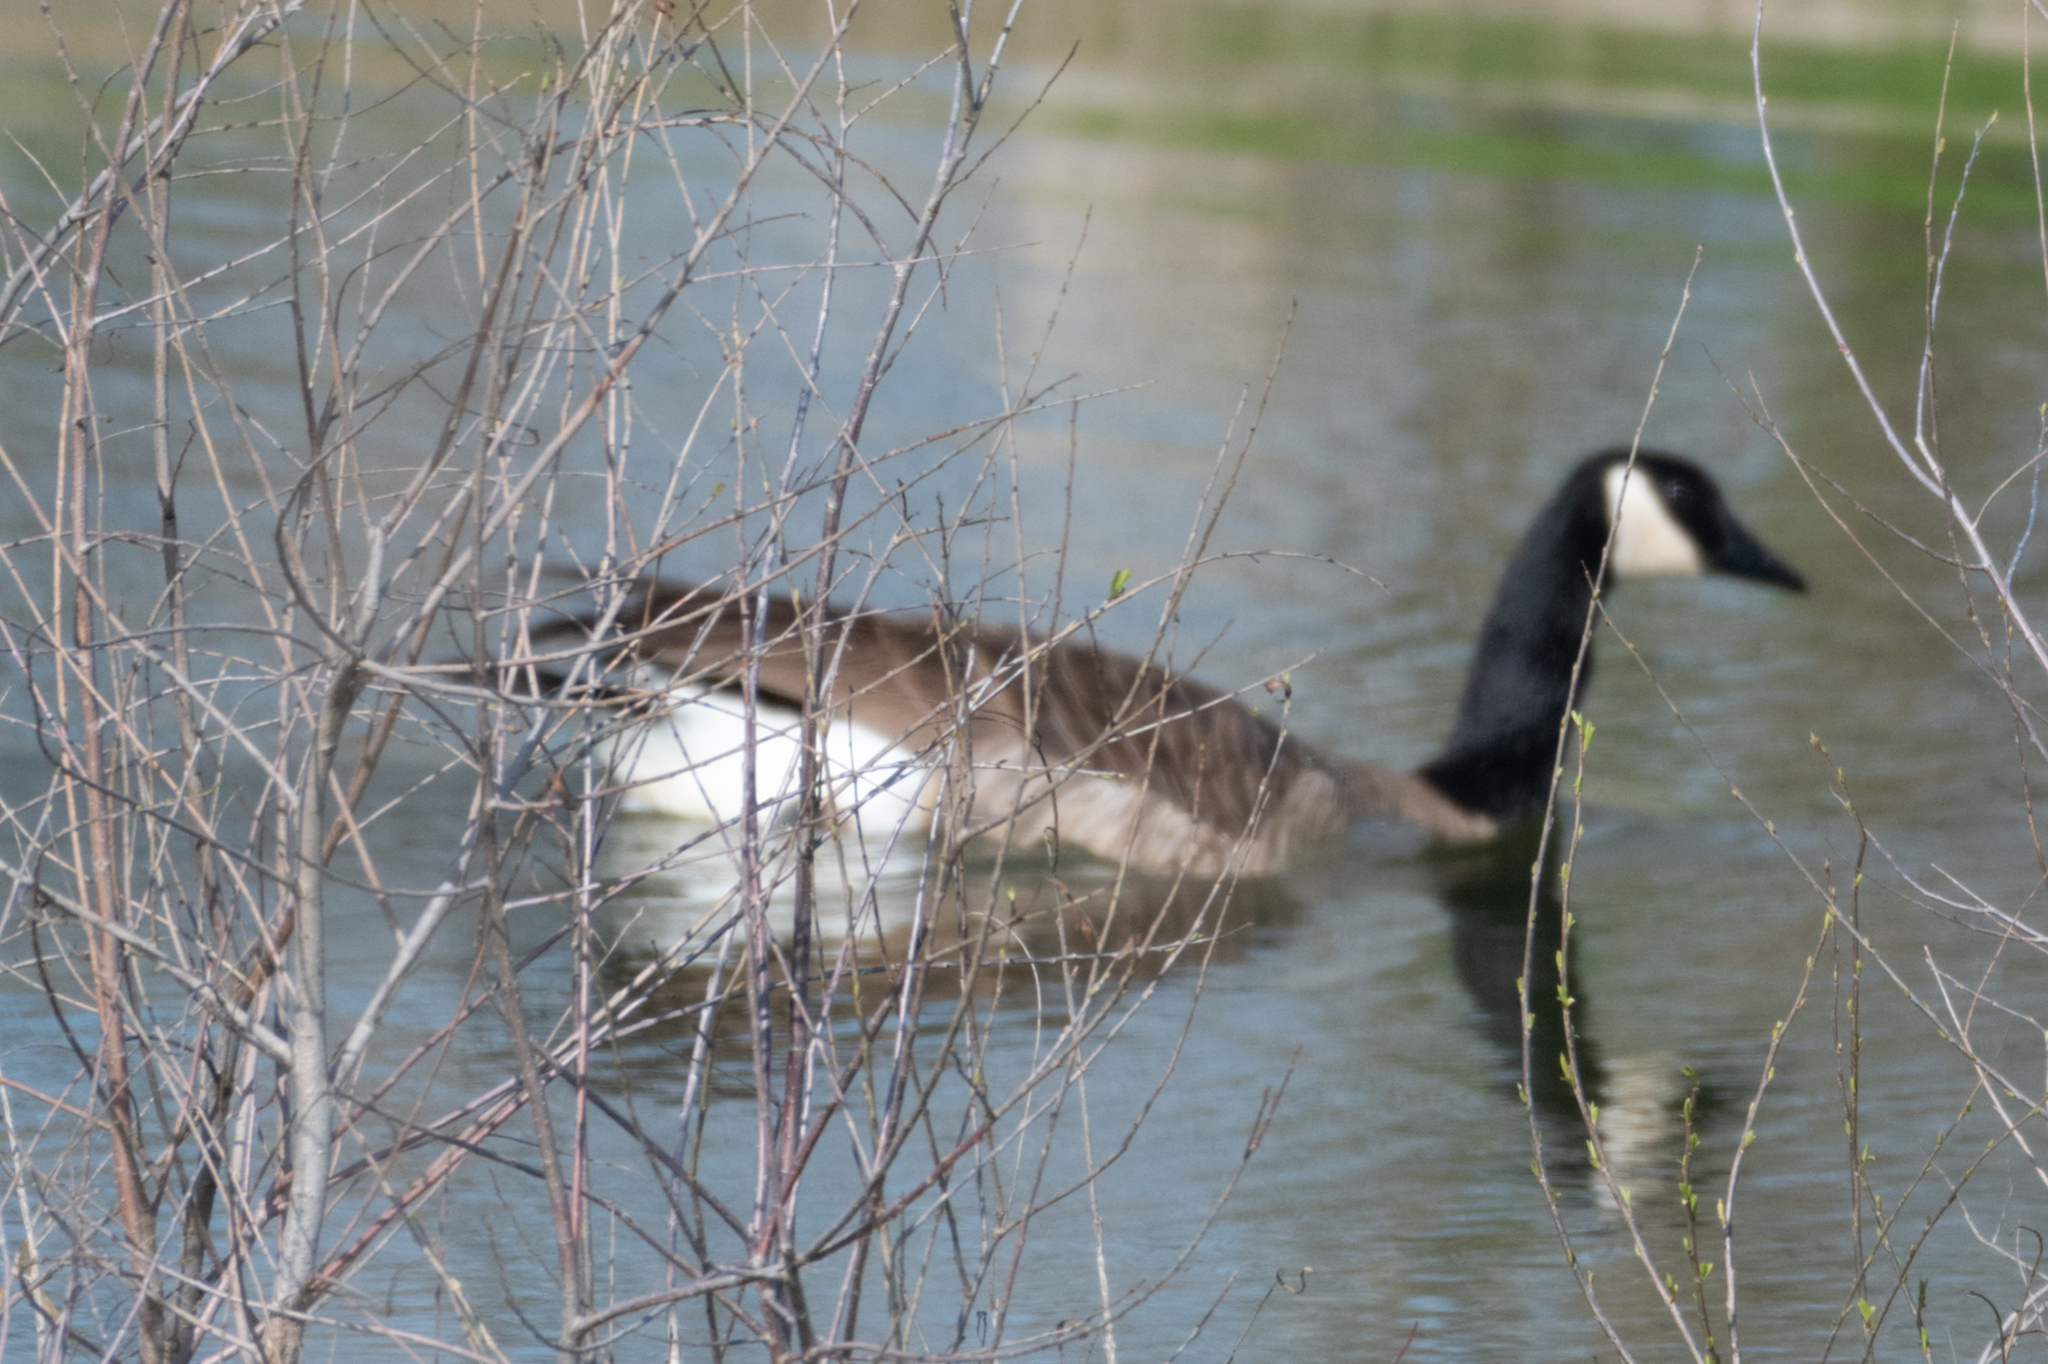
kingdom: Animalia
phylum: Chordata
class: Aves
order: Anseriformes
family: Anatidae
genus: Branta
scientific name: Branta canadensis
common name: Canada goose
